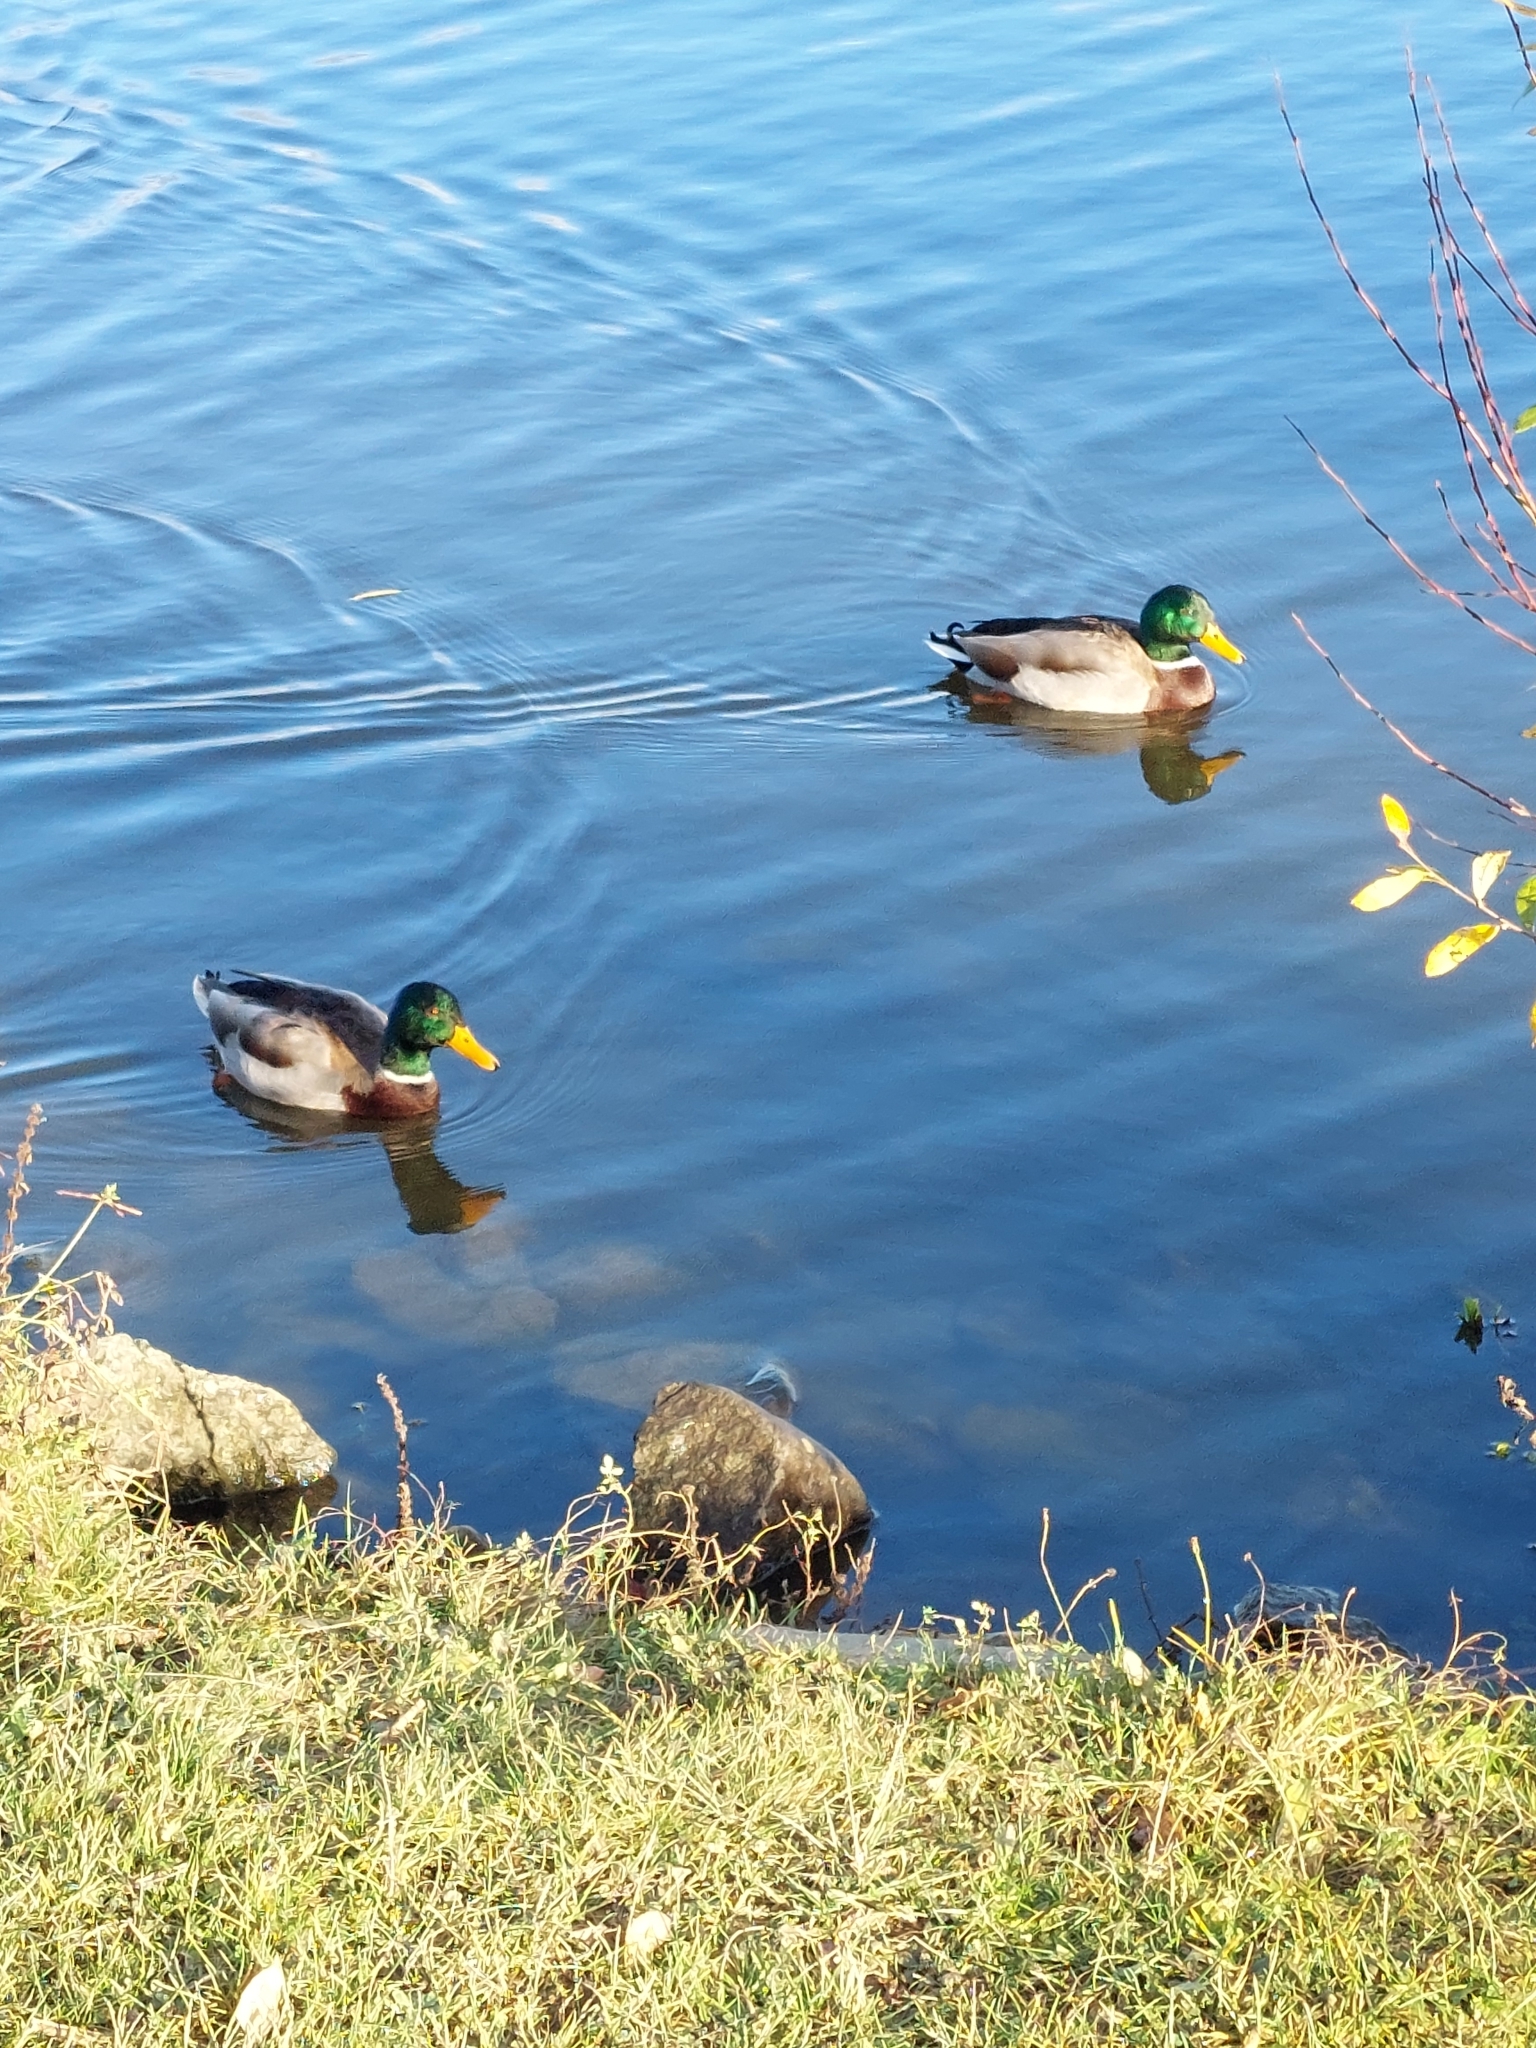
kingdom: Animalia
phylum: Chordata
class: Aves
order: Anseriformes
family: Anatidae
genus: Anas
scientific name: Anas platyrhynchos
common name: Mallard
